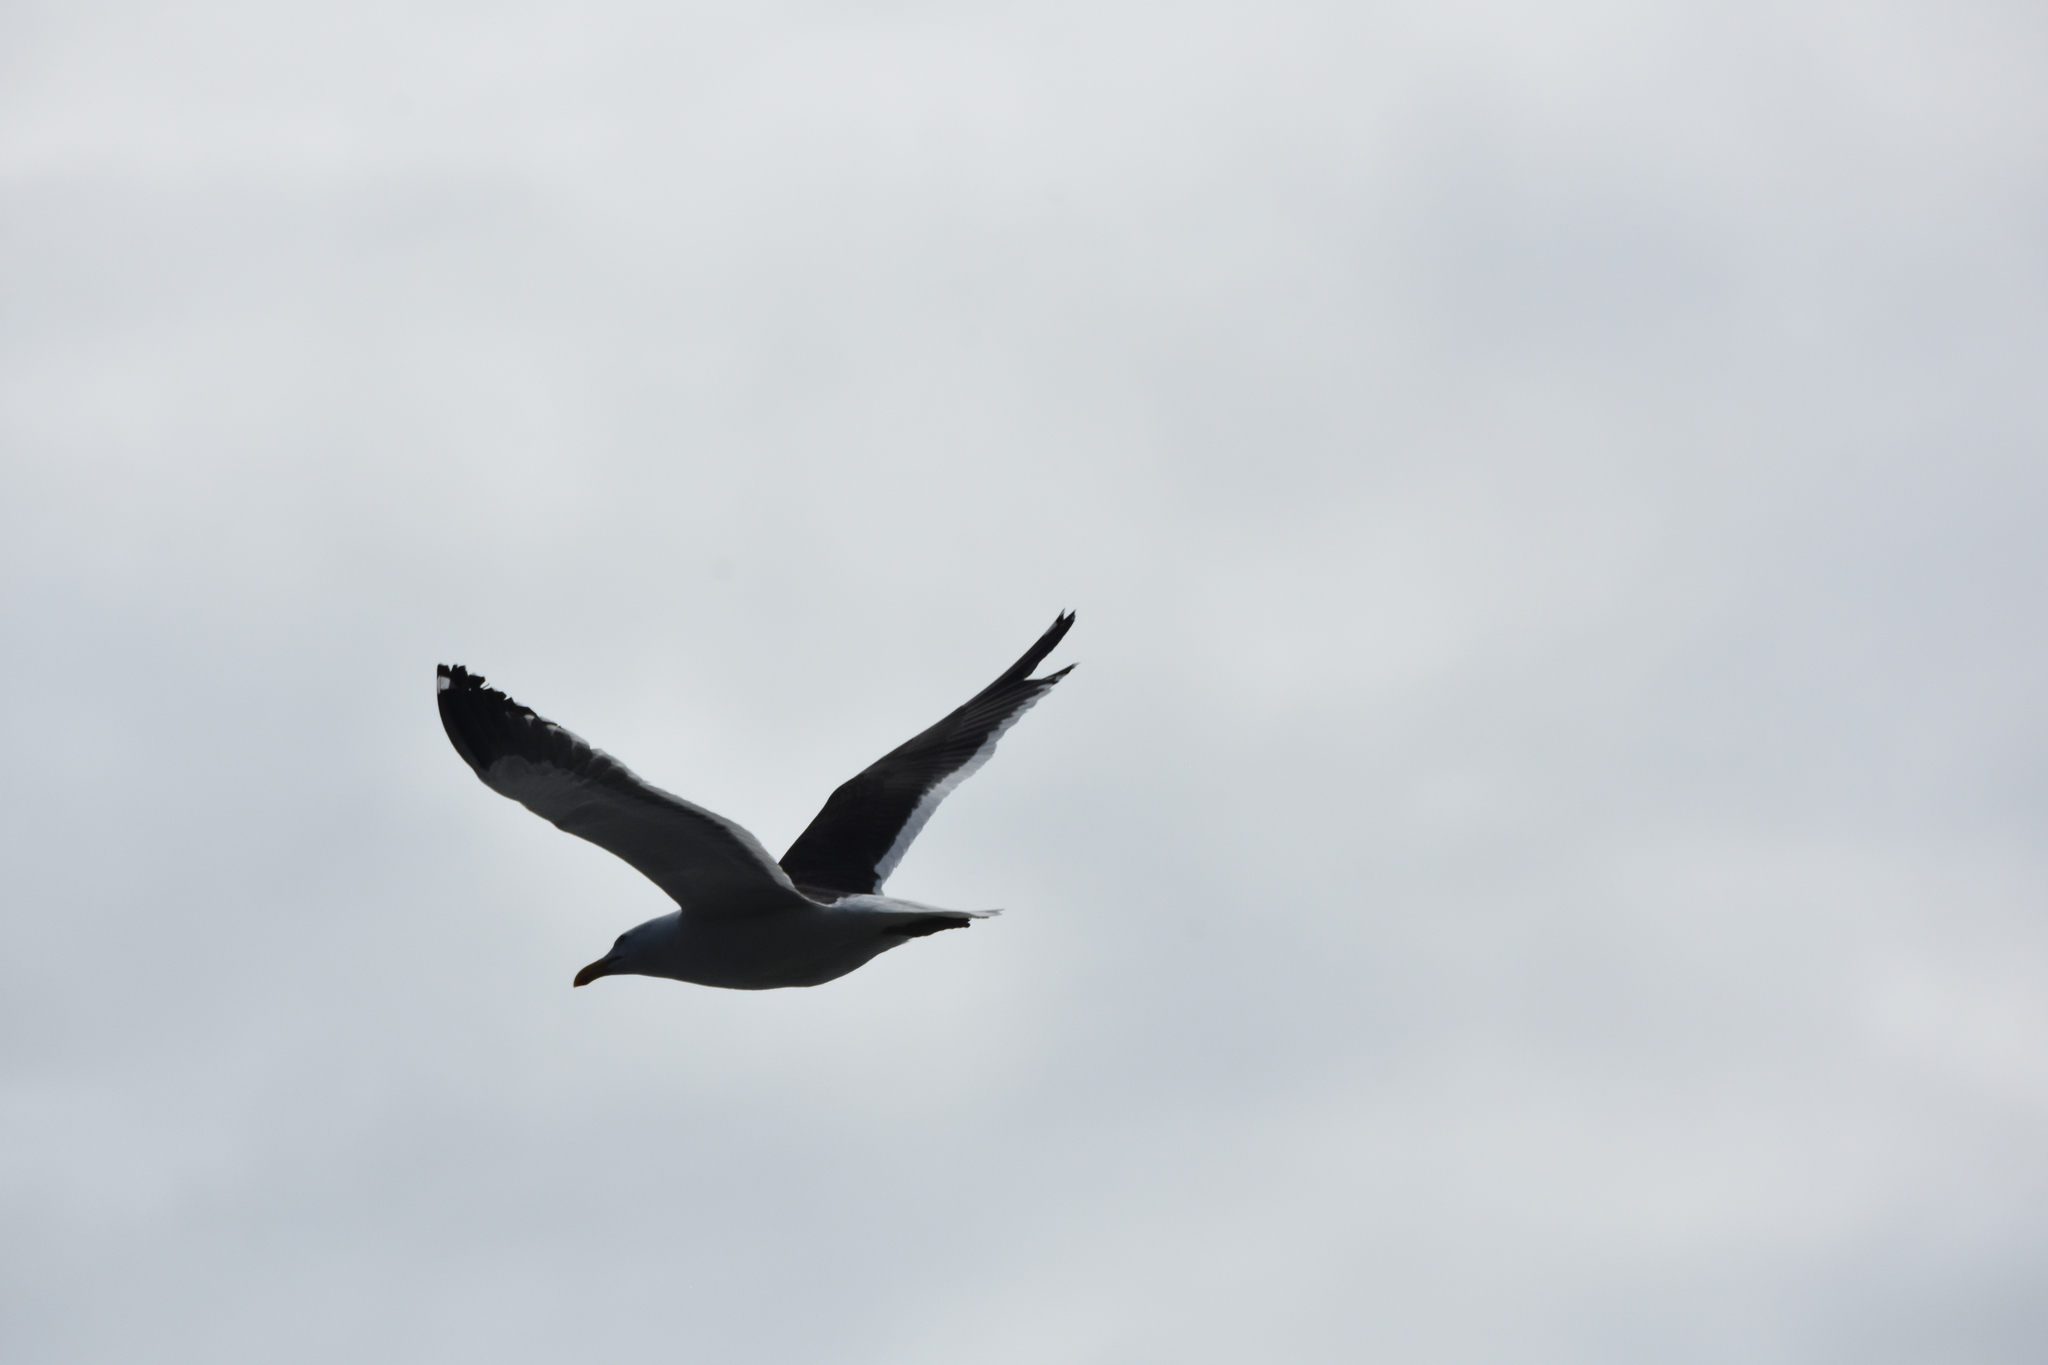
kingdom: Animalia
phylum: Chordata
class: Aves
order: Charadriiformes
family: Laridae
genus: Larus
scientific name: Larus dominicanus
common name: Kelp gull
